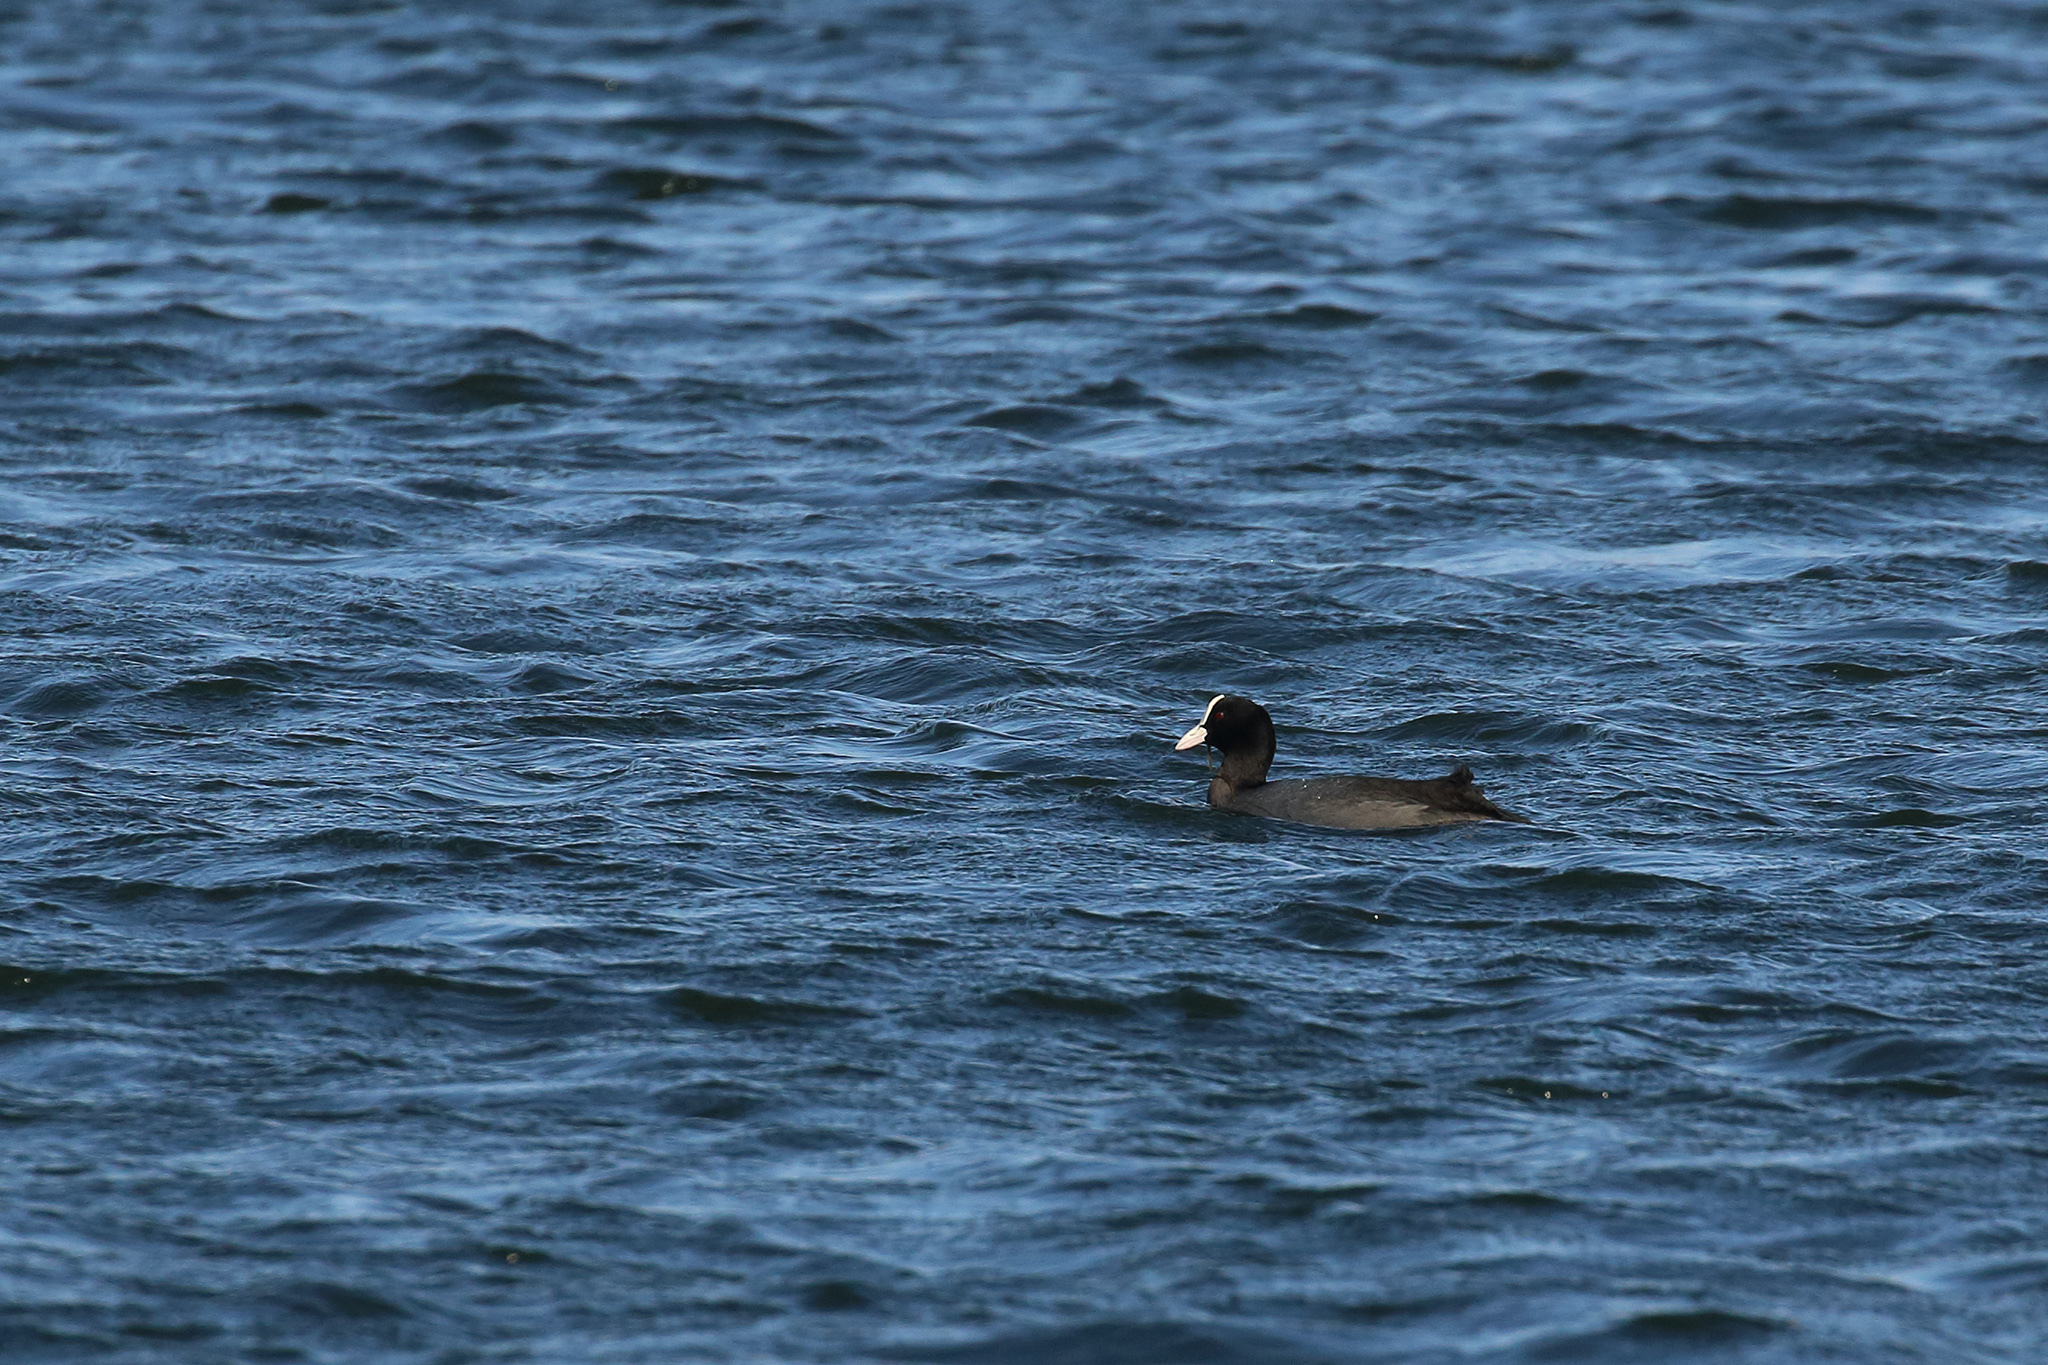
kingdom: Animalia
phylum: Chordata
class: Aves
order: Gruiformes
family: Rallidae
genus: Fulica
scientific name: Fulica atra
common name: Eurasian coot
